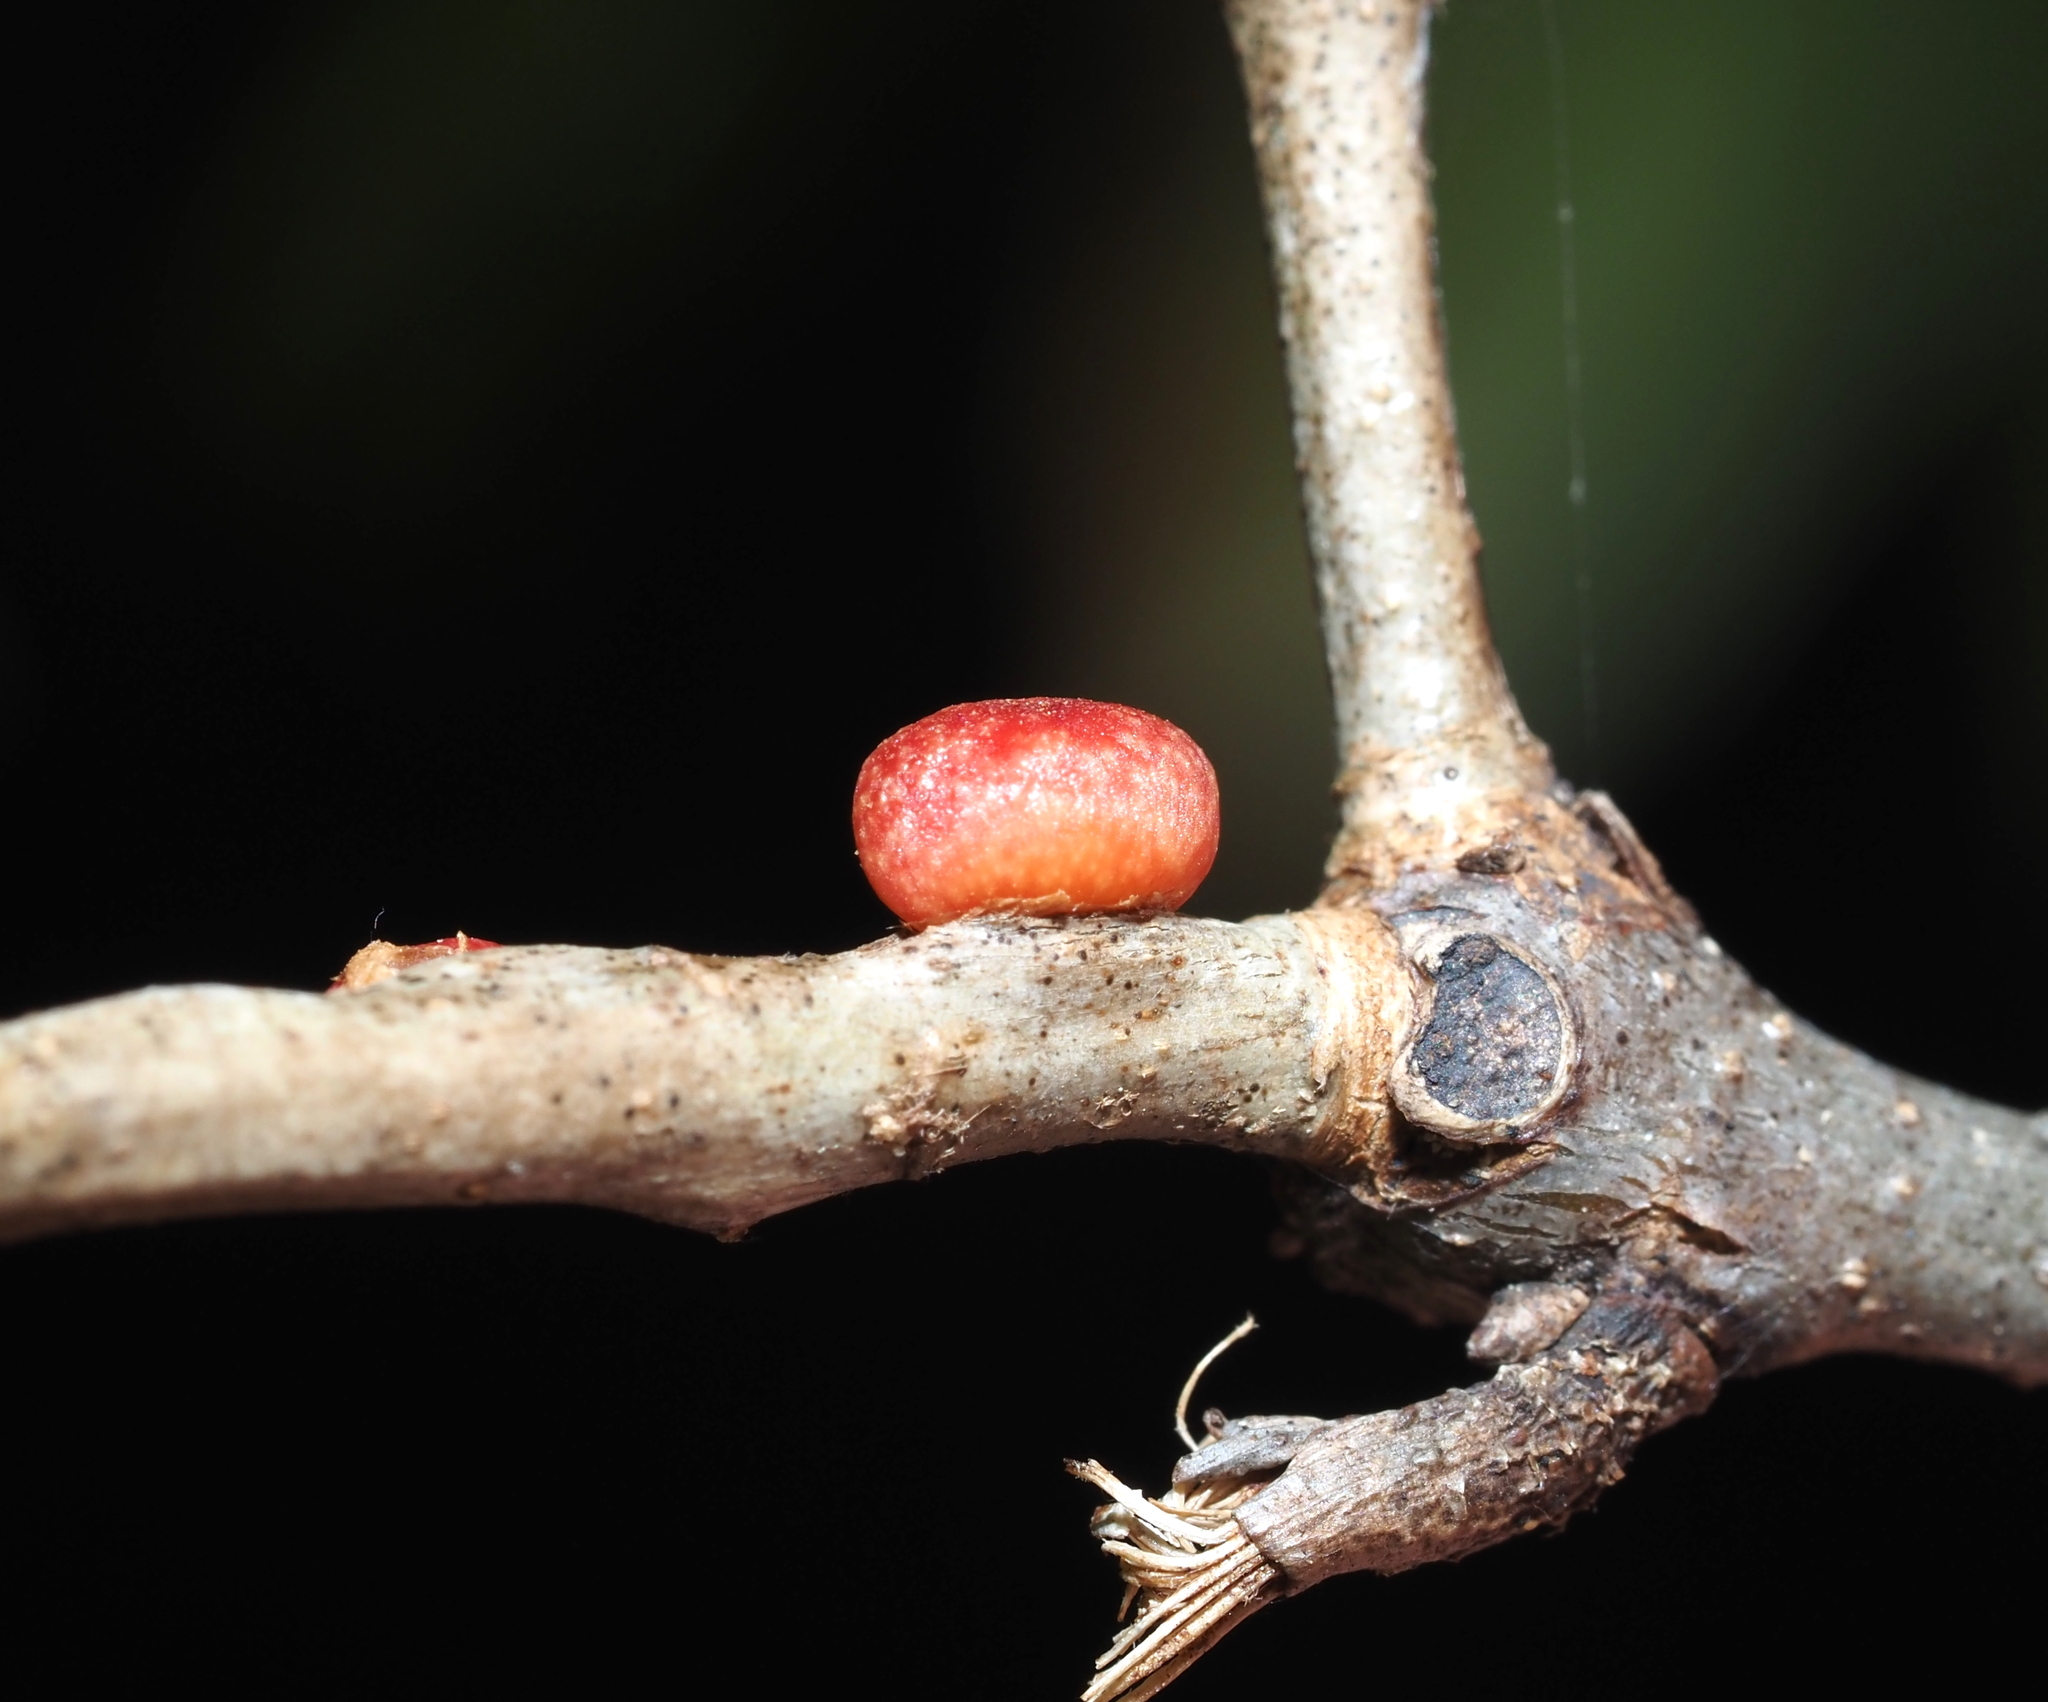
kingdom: Animalia
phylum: Arthropoda
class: Insecta
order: Hymenoptera
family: Cynipidae
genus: Kokkocynips
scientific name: Kokkocynips imbricariae
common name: Banded bullet gall wasp
